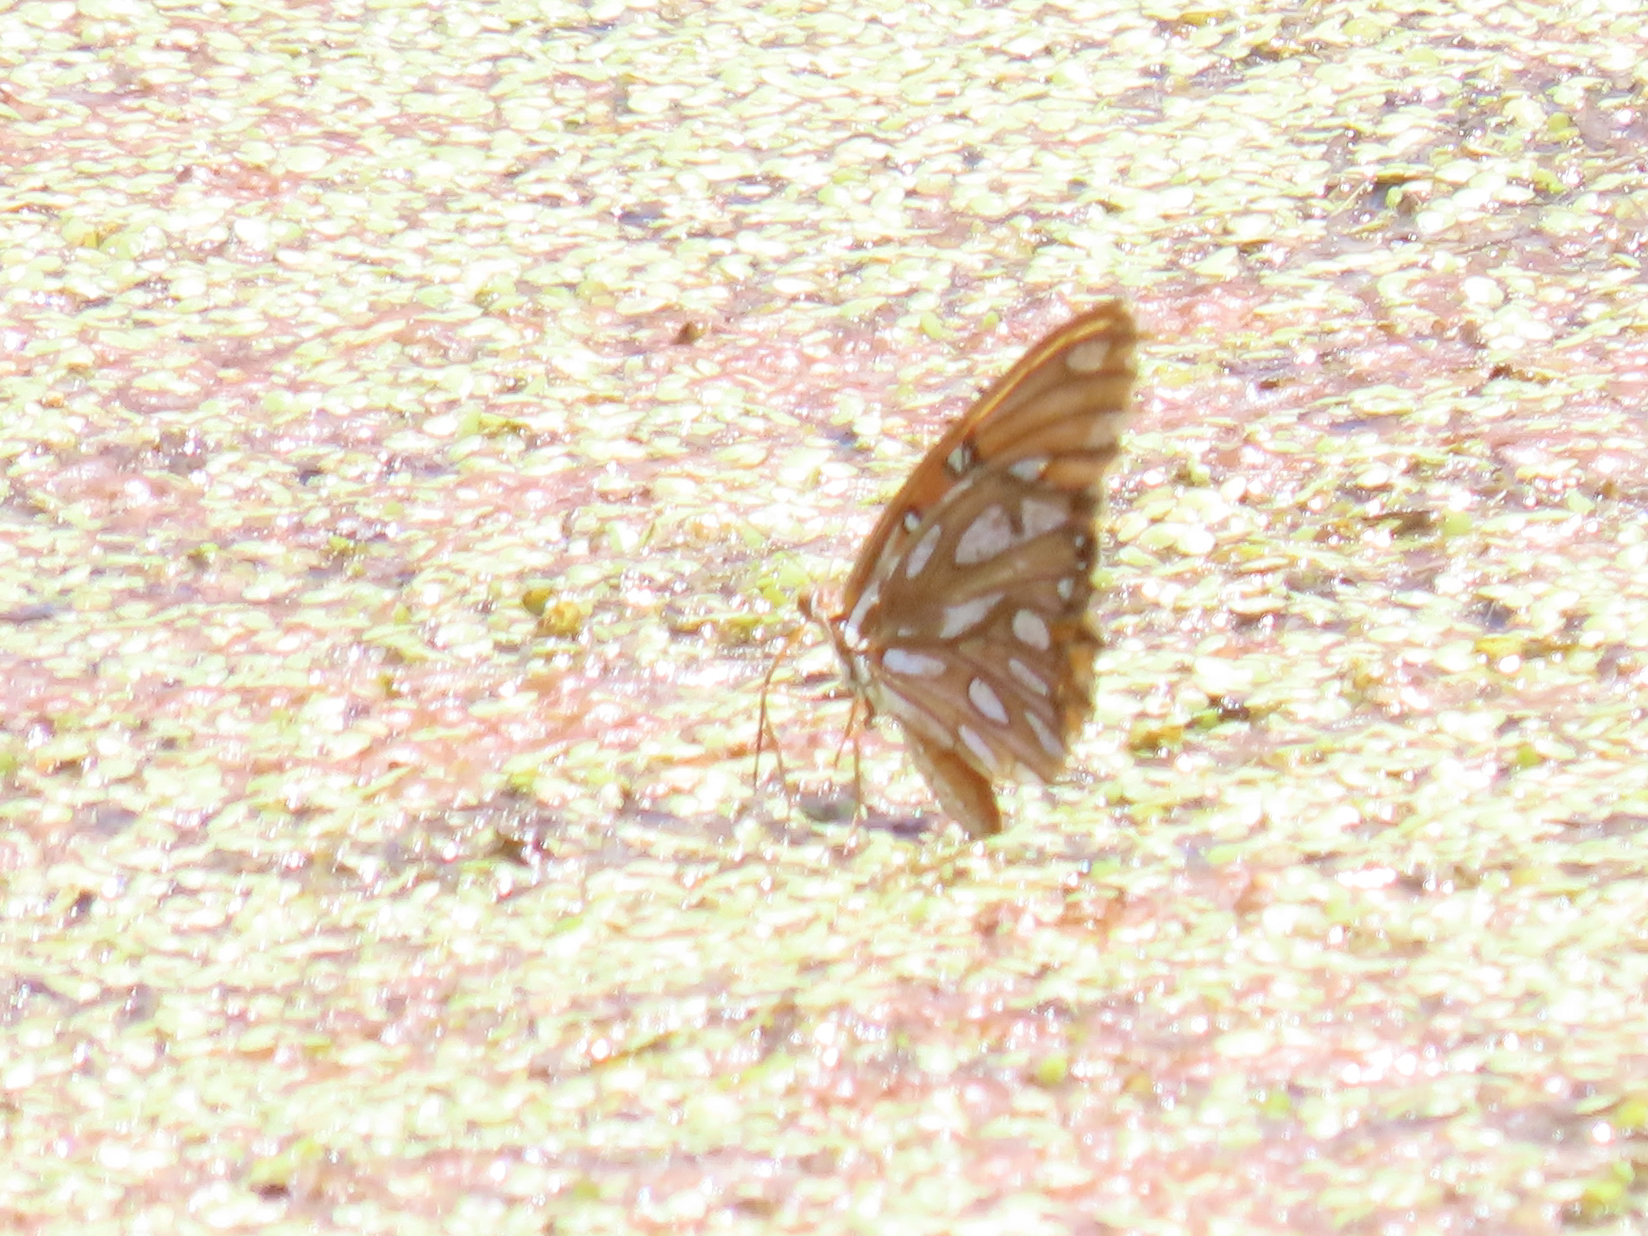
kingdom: Animalia
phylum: Arthropoda
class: Insecta
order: Lepidoptera
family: Nymphalidae
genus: Dione
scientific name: Dione vanillae
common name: Gulf fritillary
